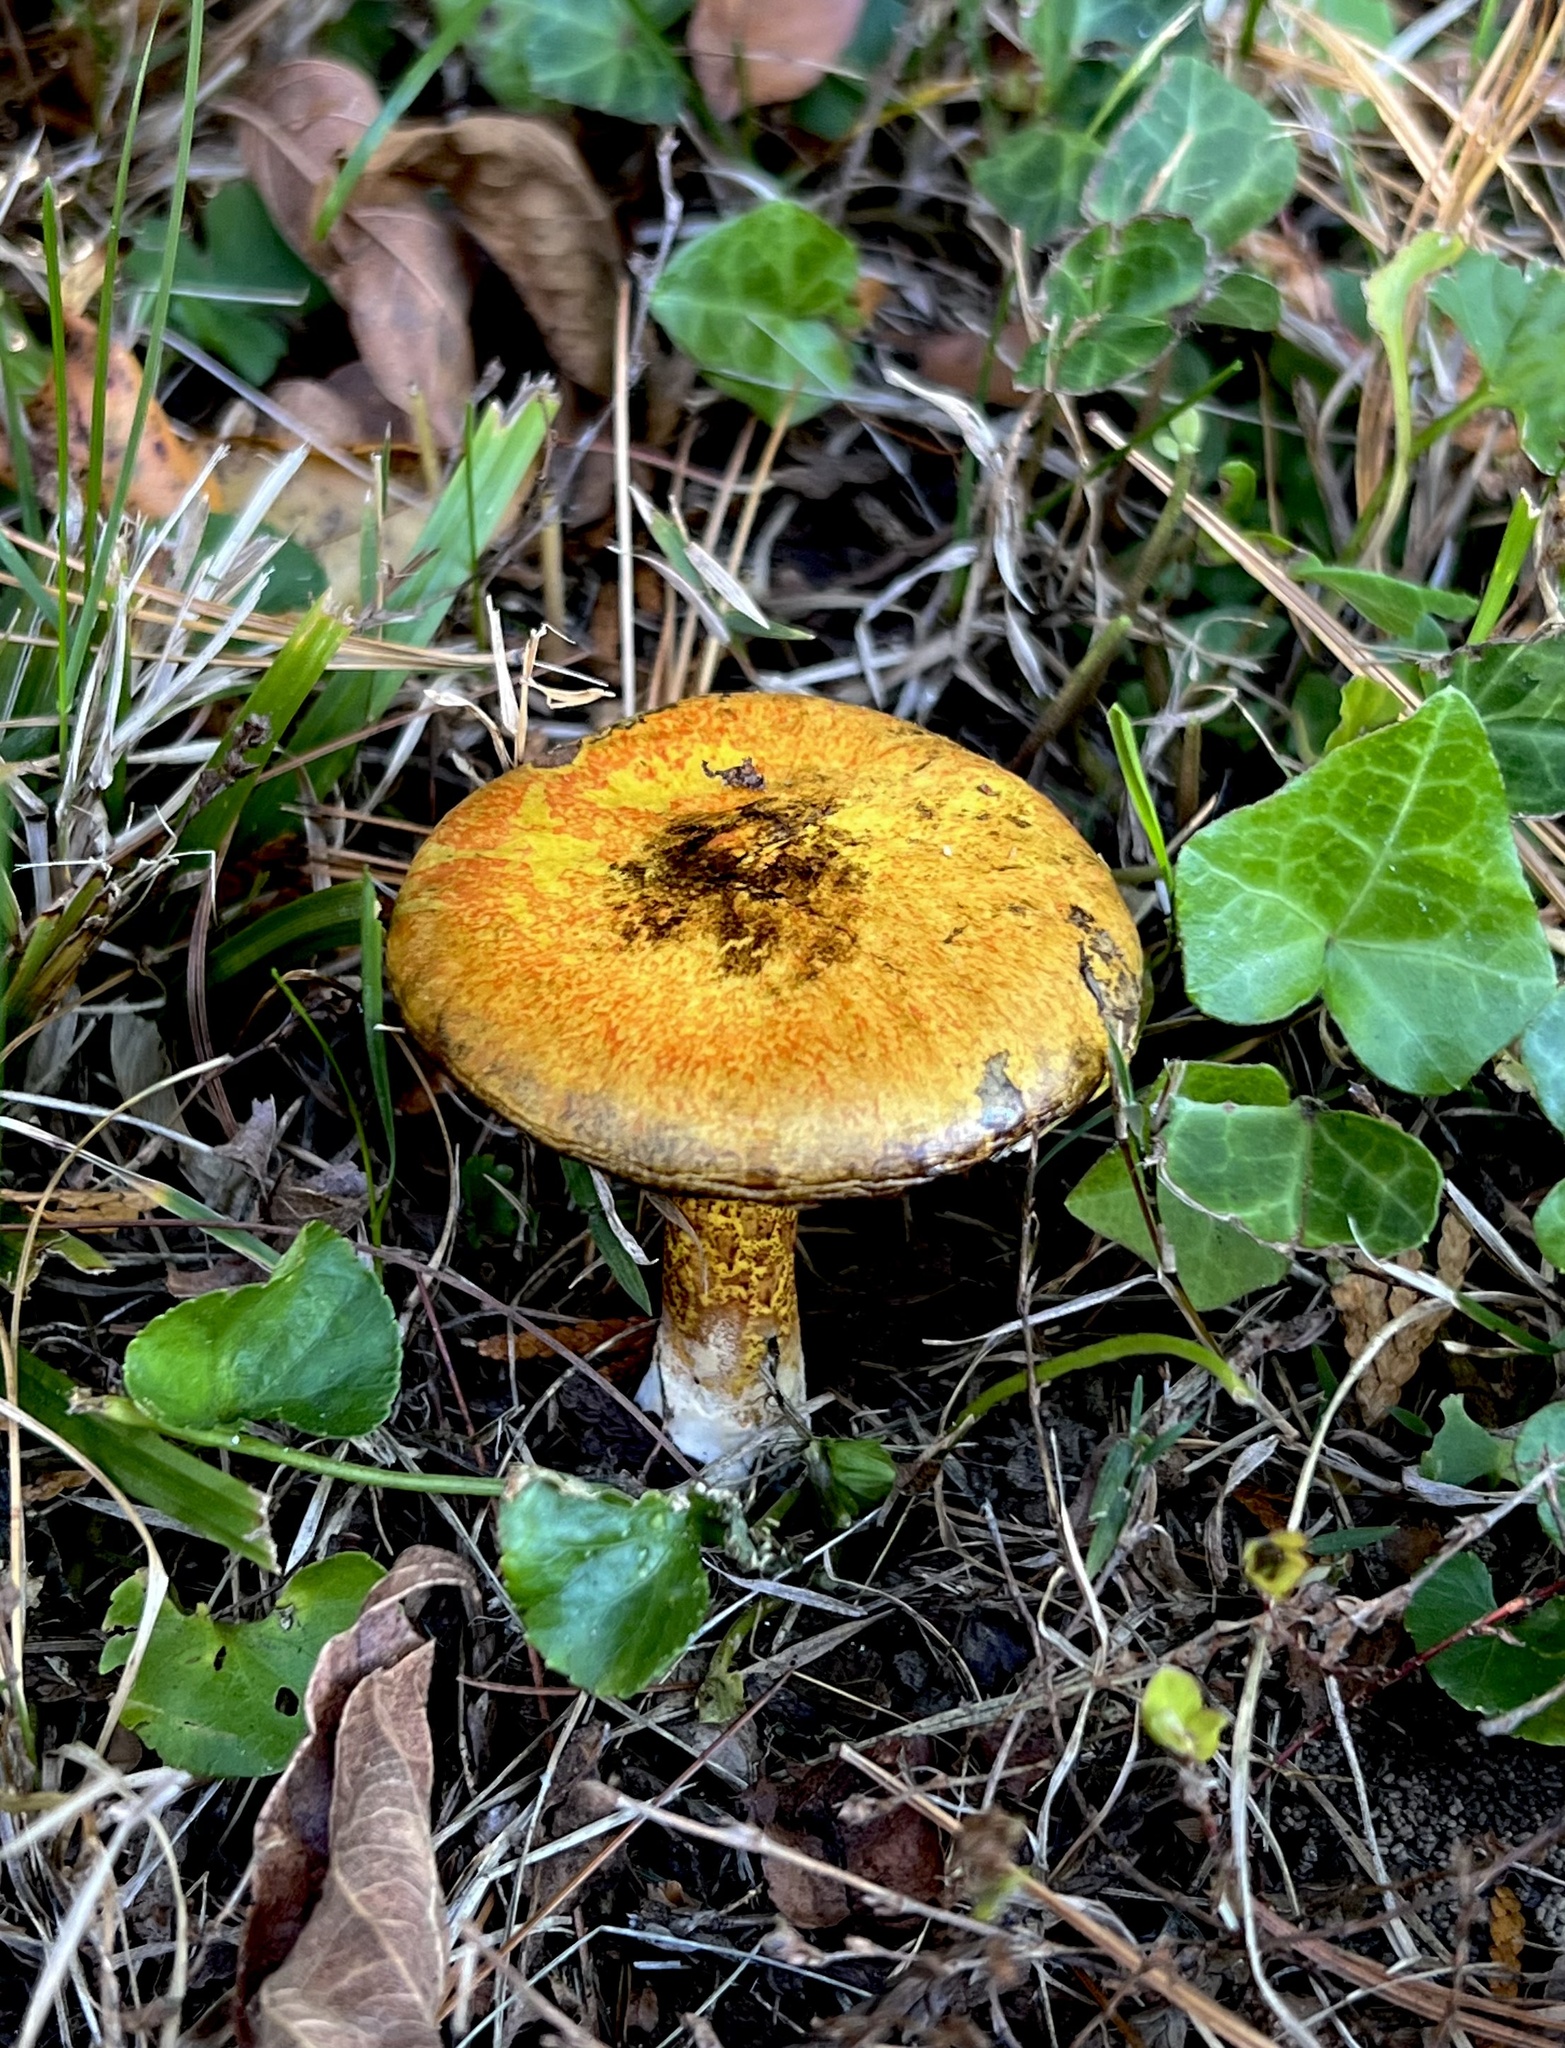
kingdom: Fungi
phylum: Basidiomycota
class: Agaricomycetes
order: Boletales
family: Suillaceae
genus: Suillus
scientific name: Suillus americanus
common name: Chicken fat mushroom
